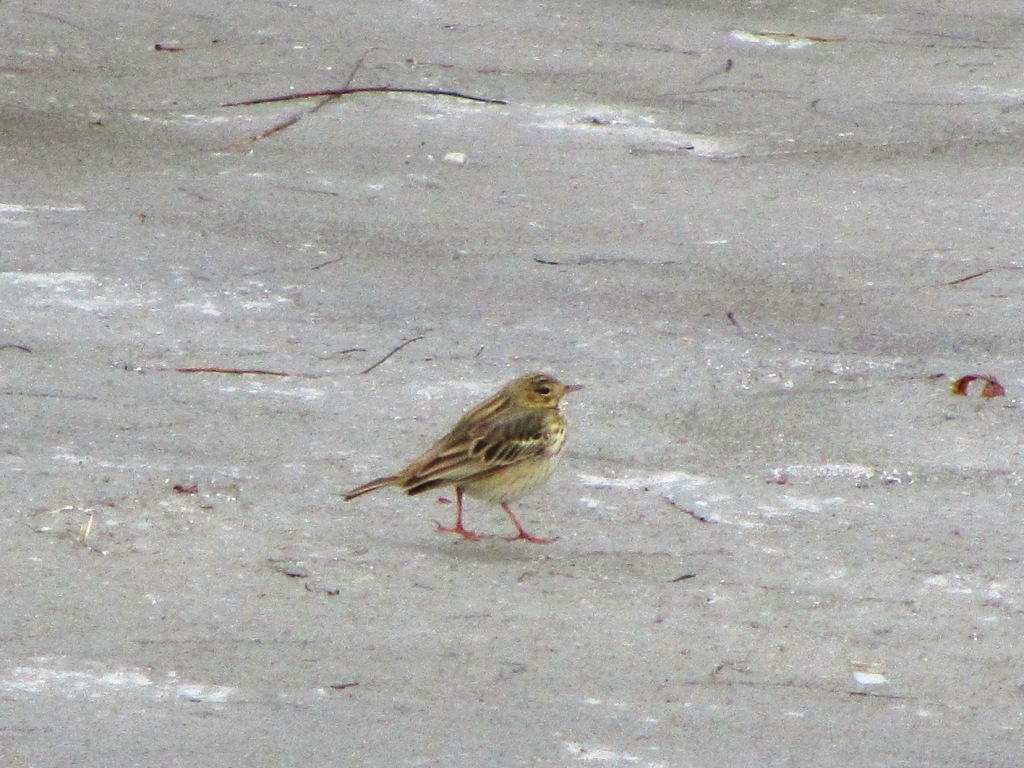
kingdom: Animalia
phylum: Chordata
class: Aves
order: Passeriformes
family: Motacillidae
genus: Anthus
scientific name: Anthus trivialis
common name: Tree pipit
